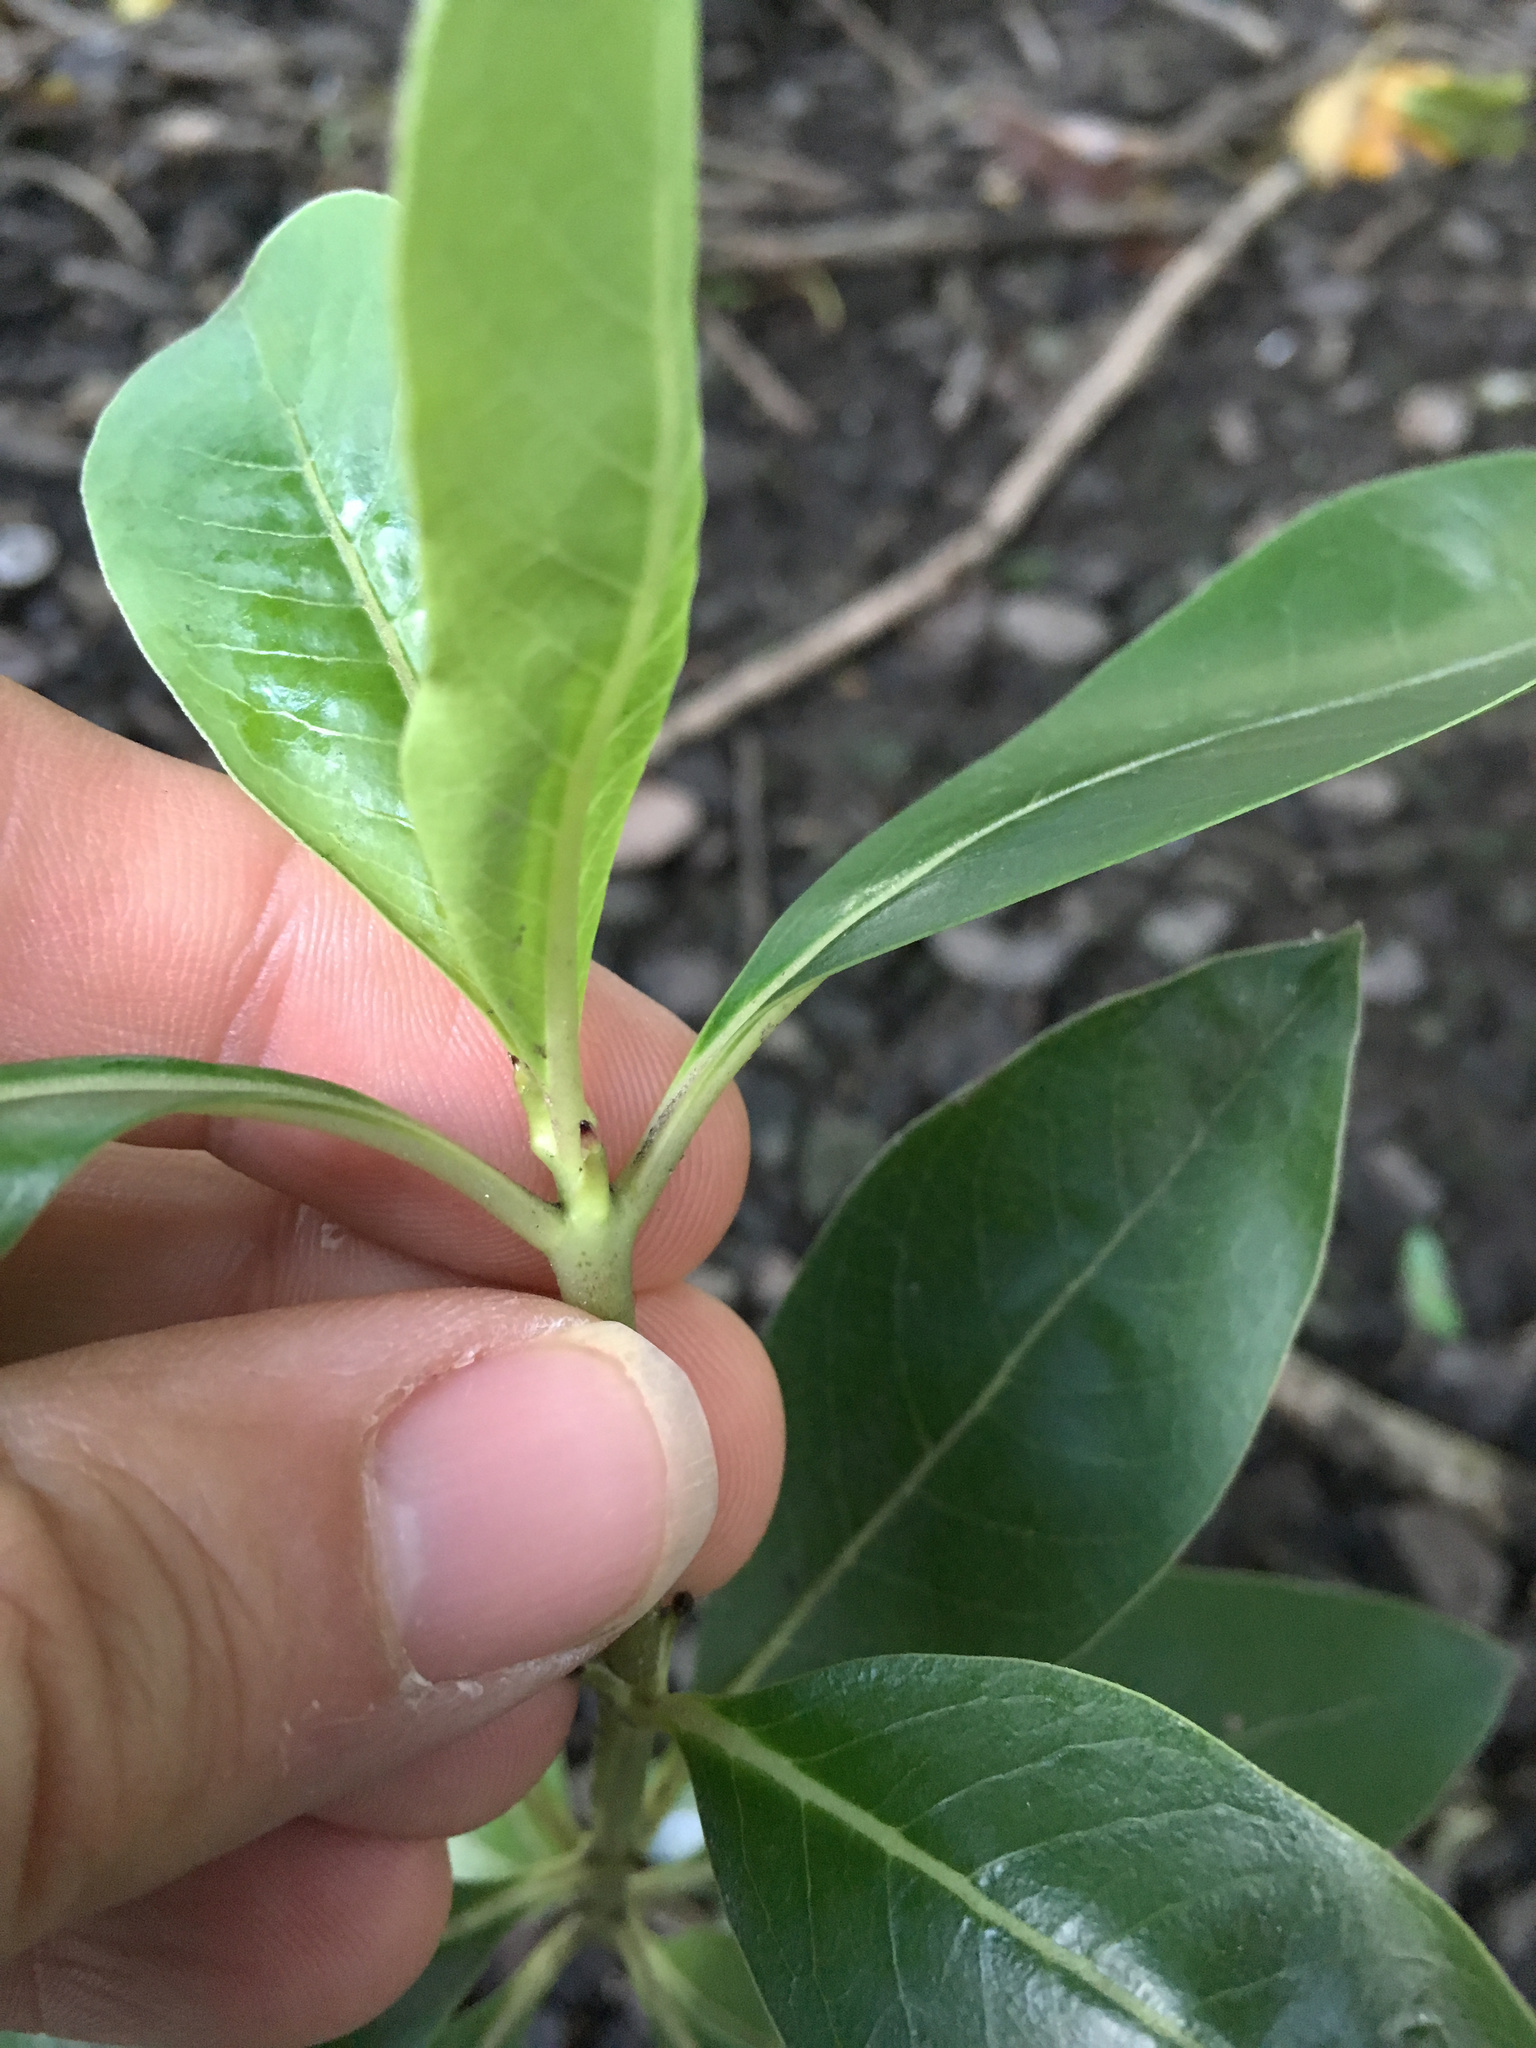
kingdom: Plantae
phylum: Tracheophyta
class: Magnoliopsida
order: Gentianales
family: Rubiaceae
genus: Coprosma
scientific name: Coprosma robusta
